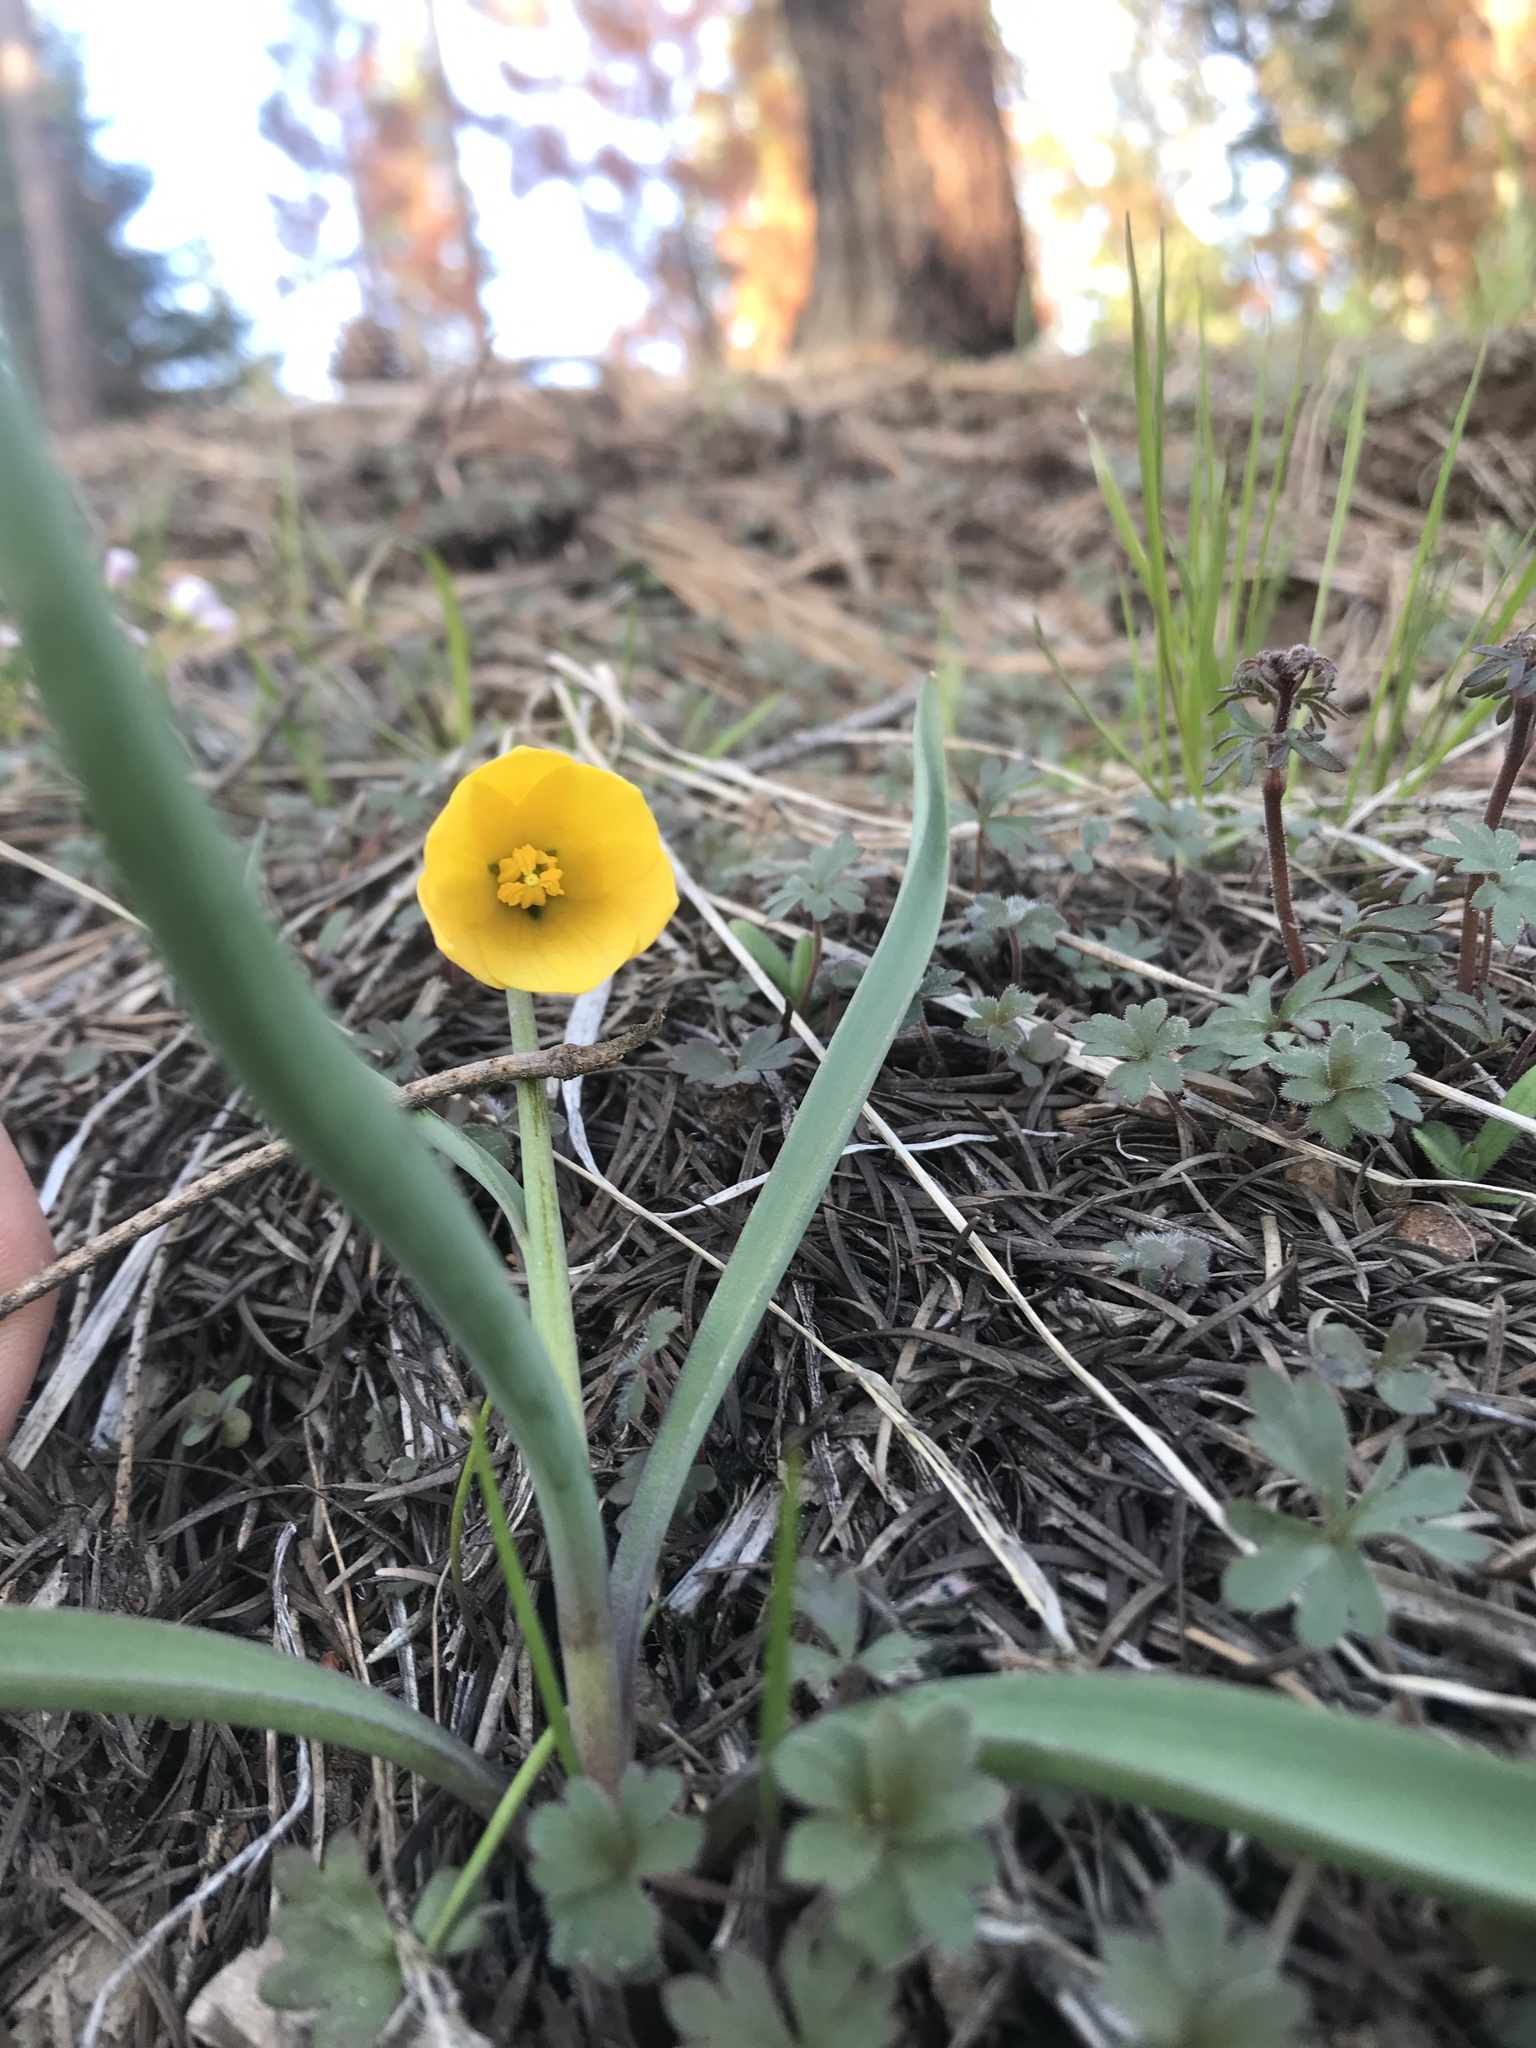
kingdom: Plantae
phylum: Tracheophyta
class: Liliopsida
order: Liliales
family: Liliaceae
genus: Fritillaria
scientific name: Fritillaria pudica
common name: Yellow fritillary
